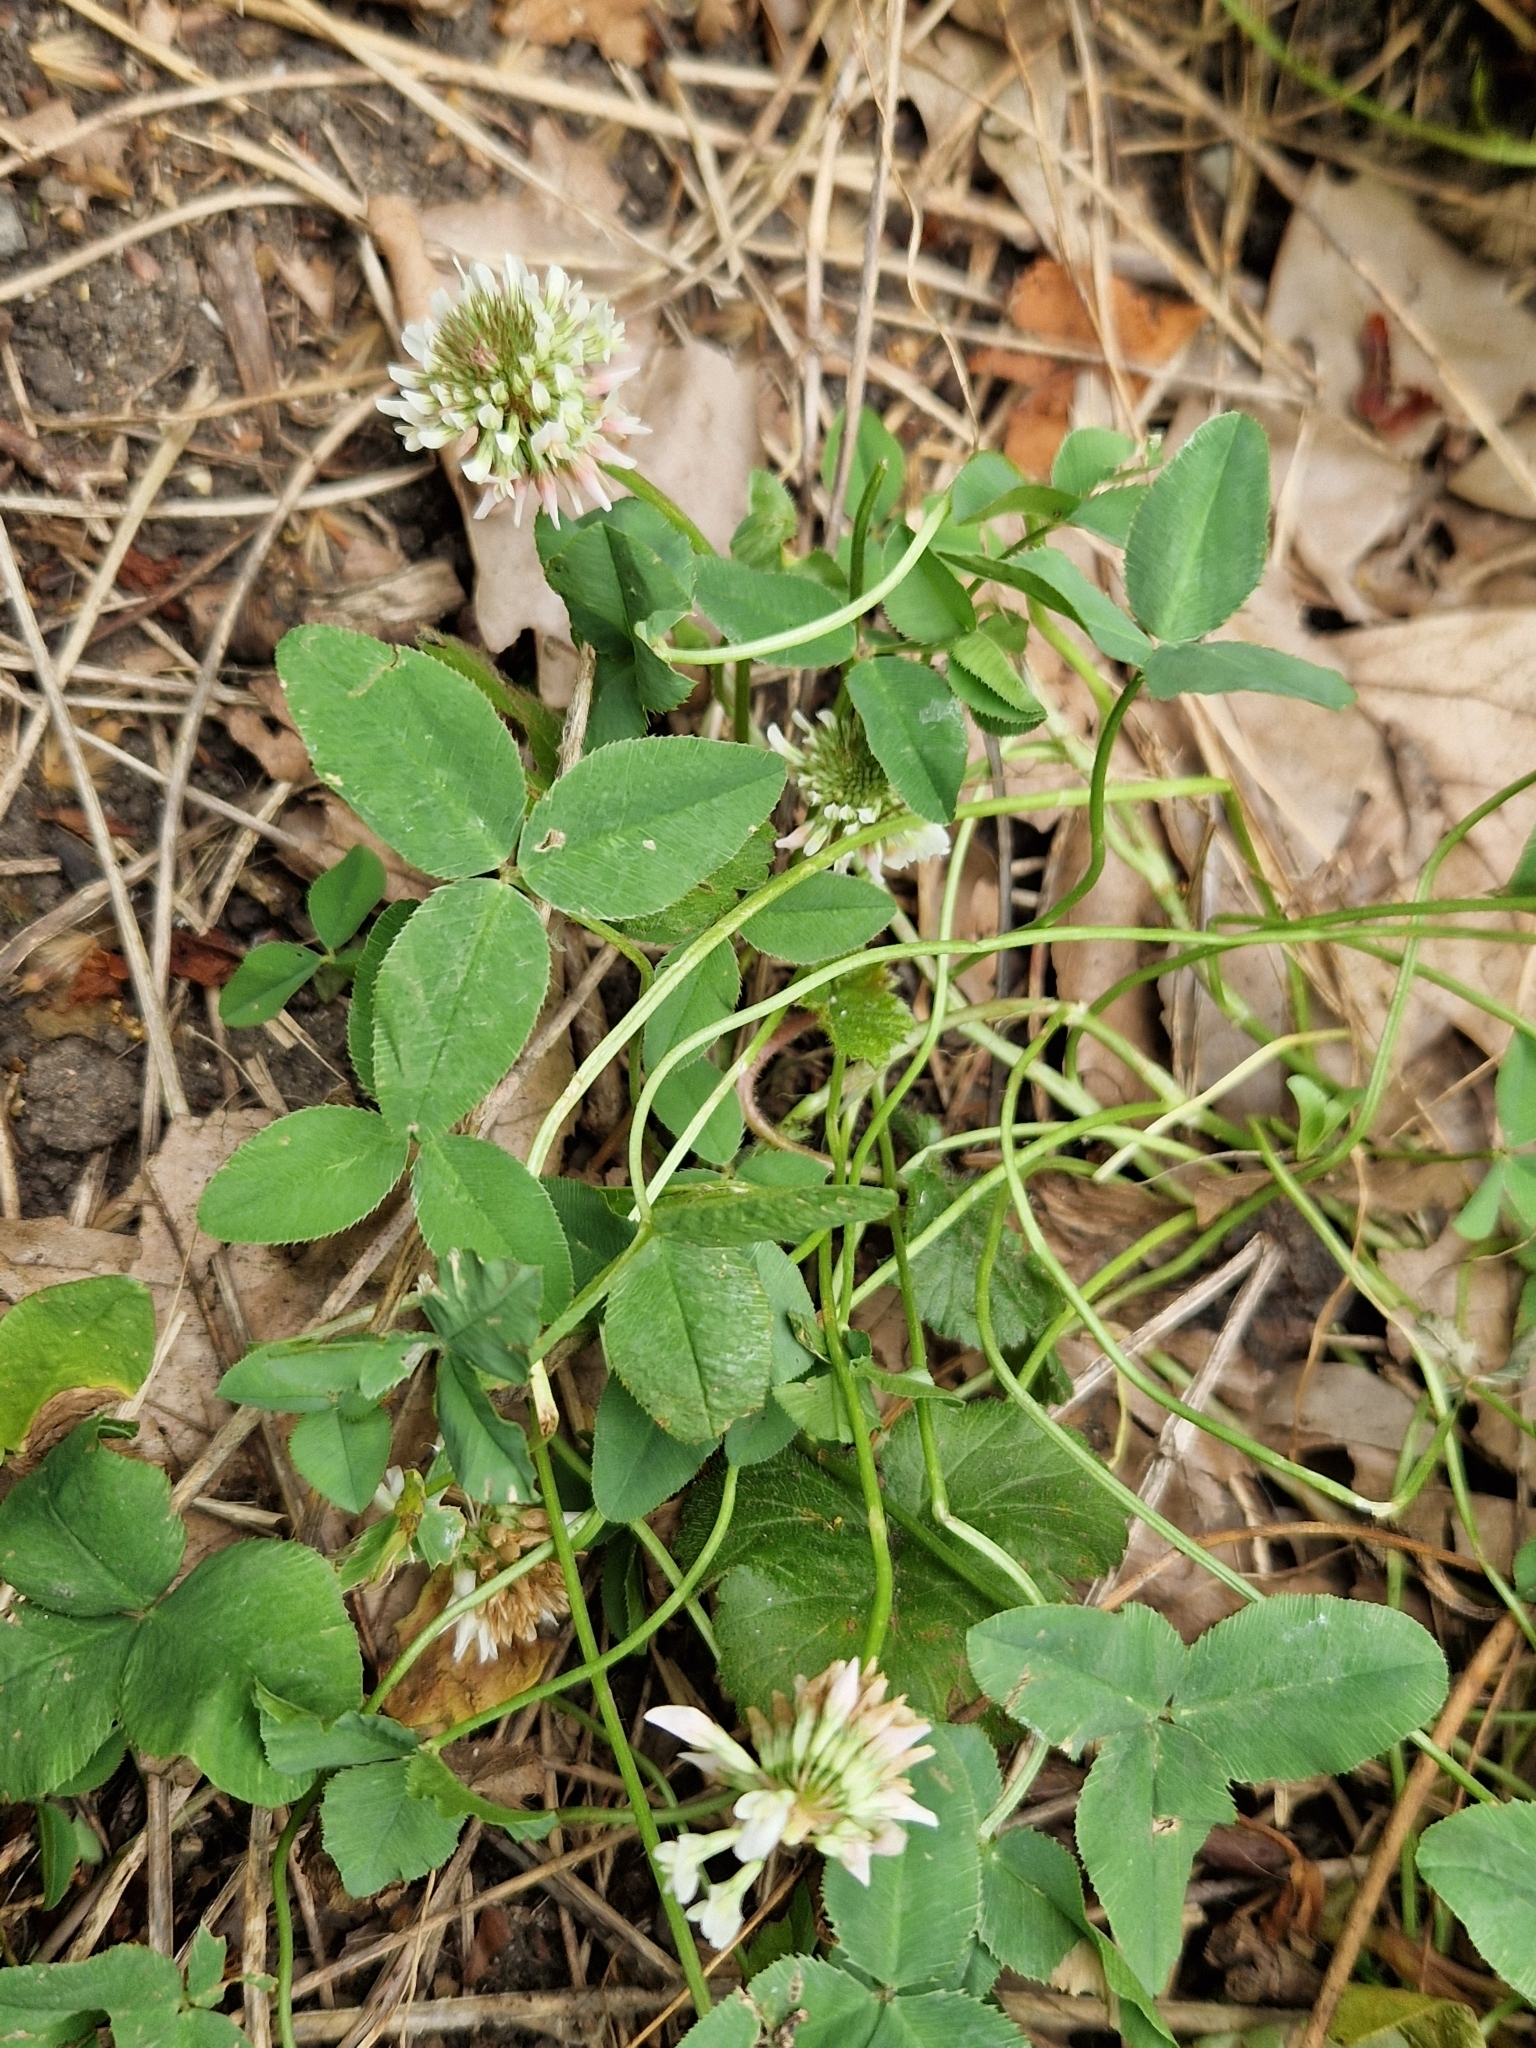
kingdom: Plantae
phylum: Tracheophyta
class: Magnoliopsida
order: Fabales
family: Fabaceae
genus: Trifolium
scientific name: Trifolium repens
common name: White clover
